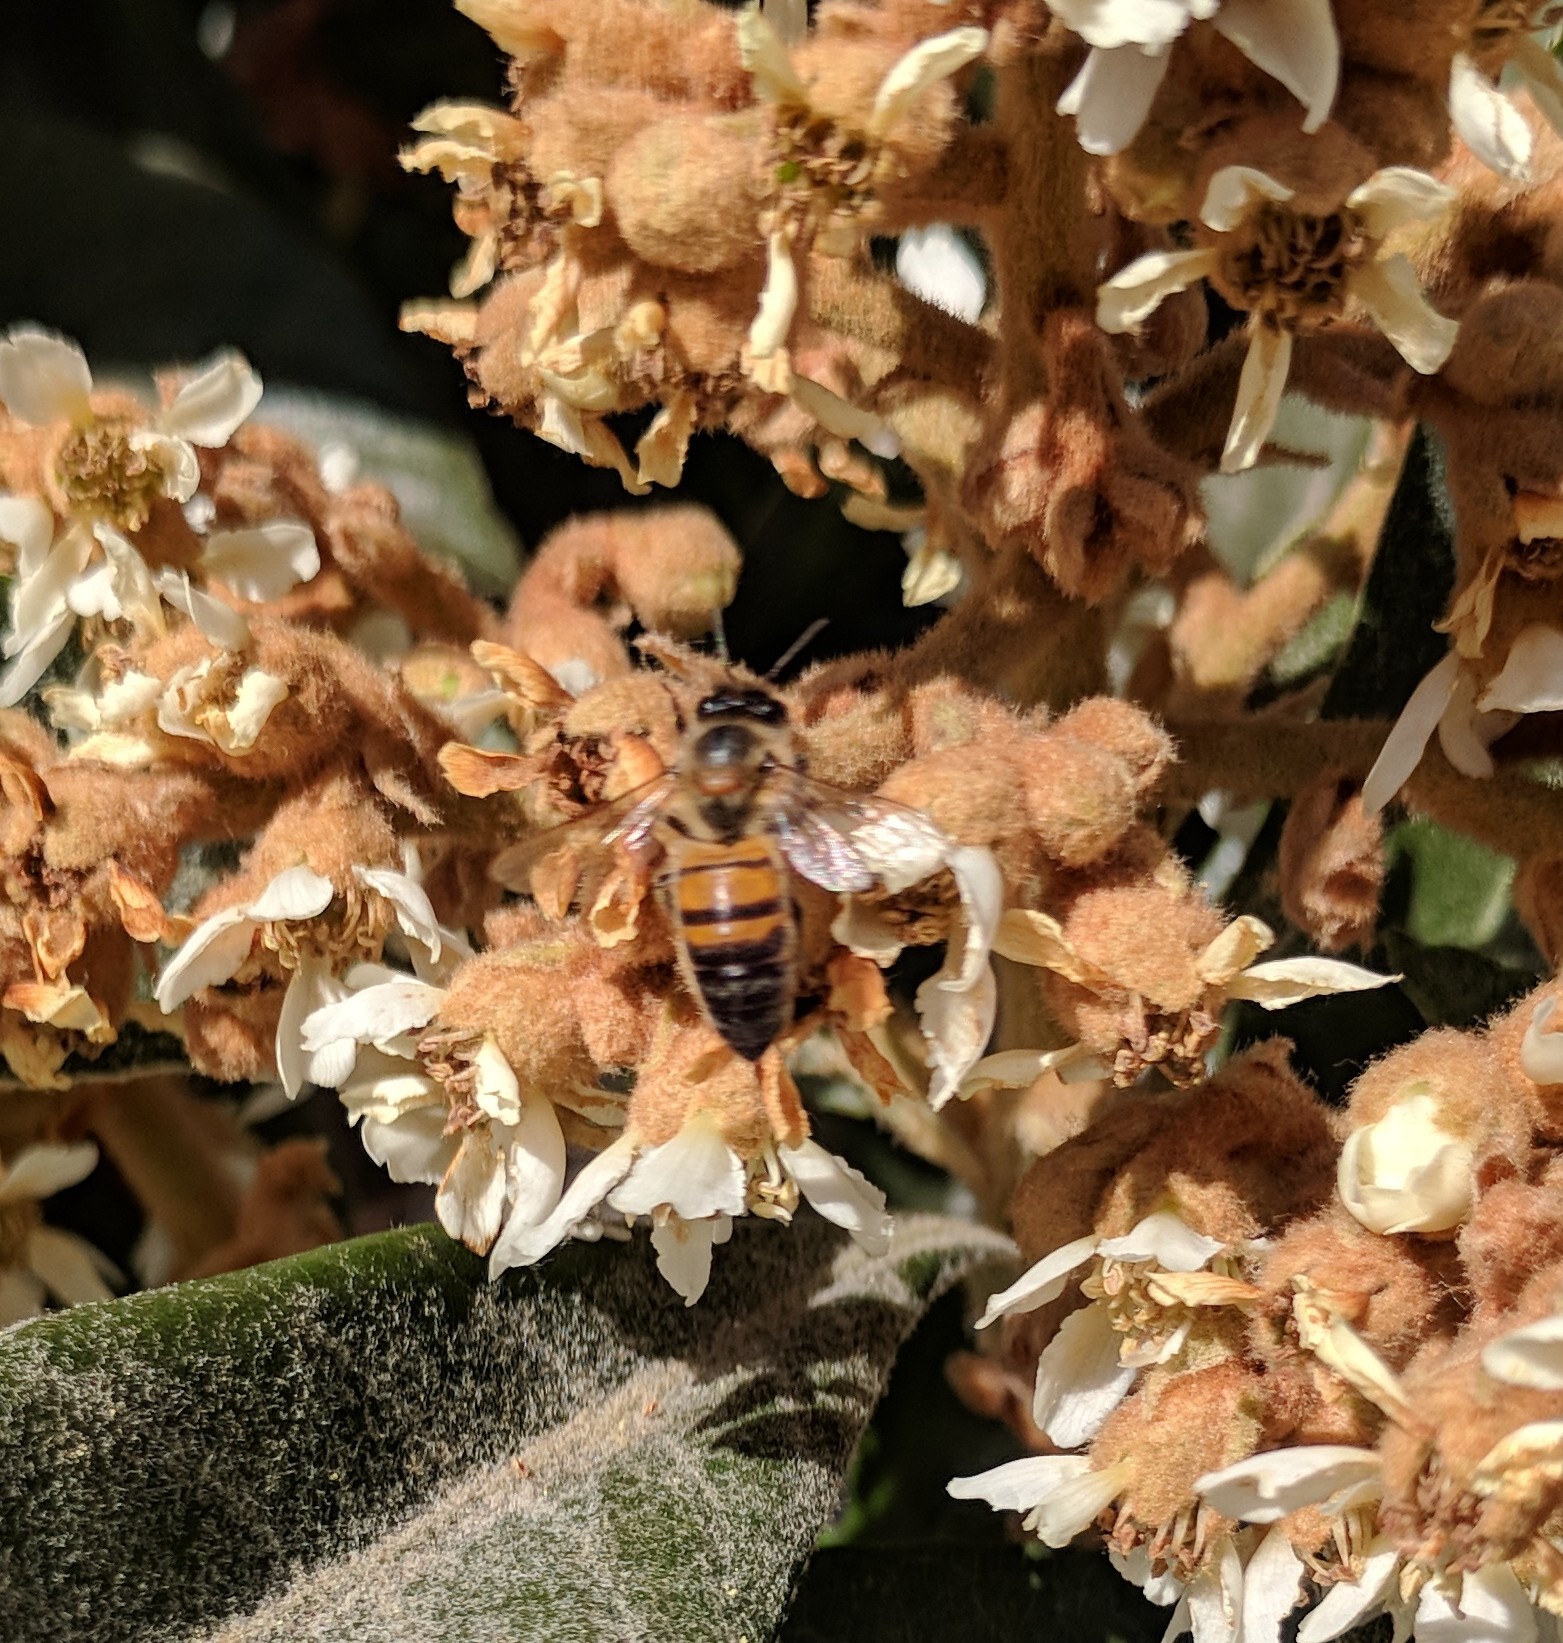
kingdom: Animalia
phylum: Arthropoda
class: Insecta
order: Hymenoptera
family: Apidae
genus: Apis
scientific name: Apis mellifera
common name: Honey bee
